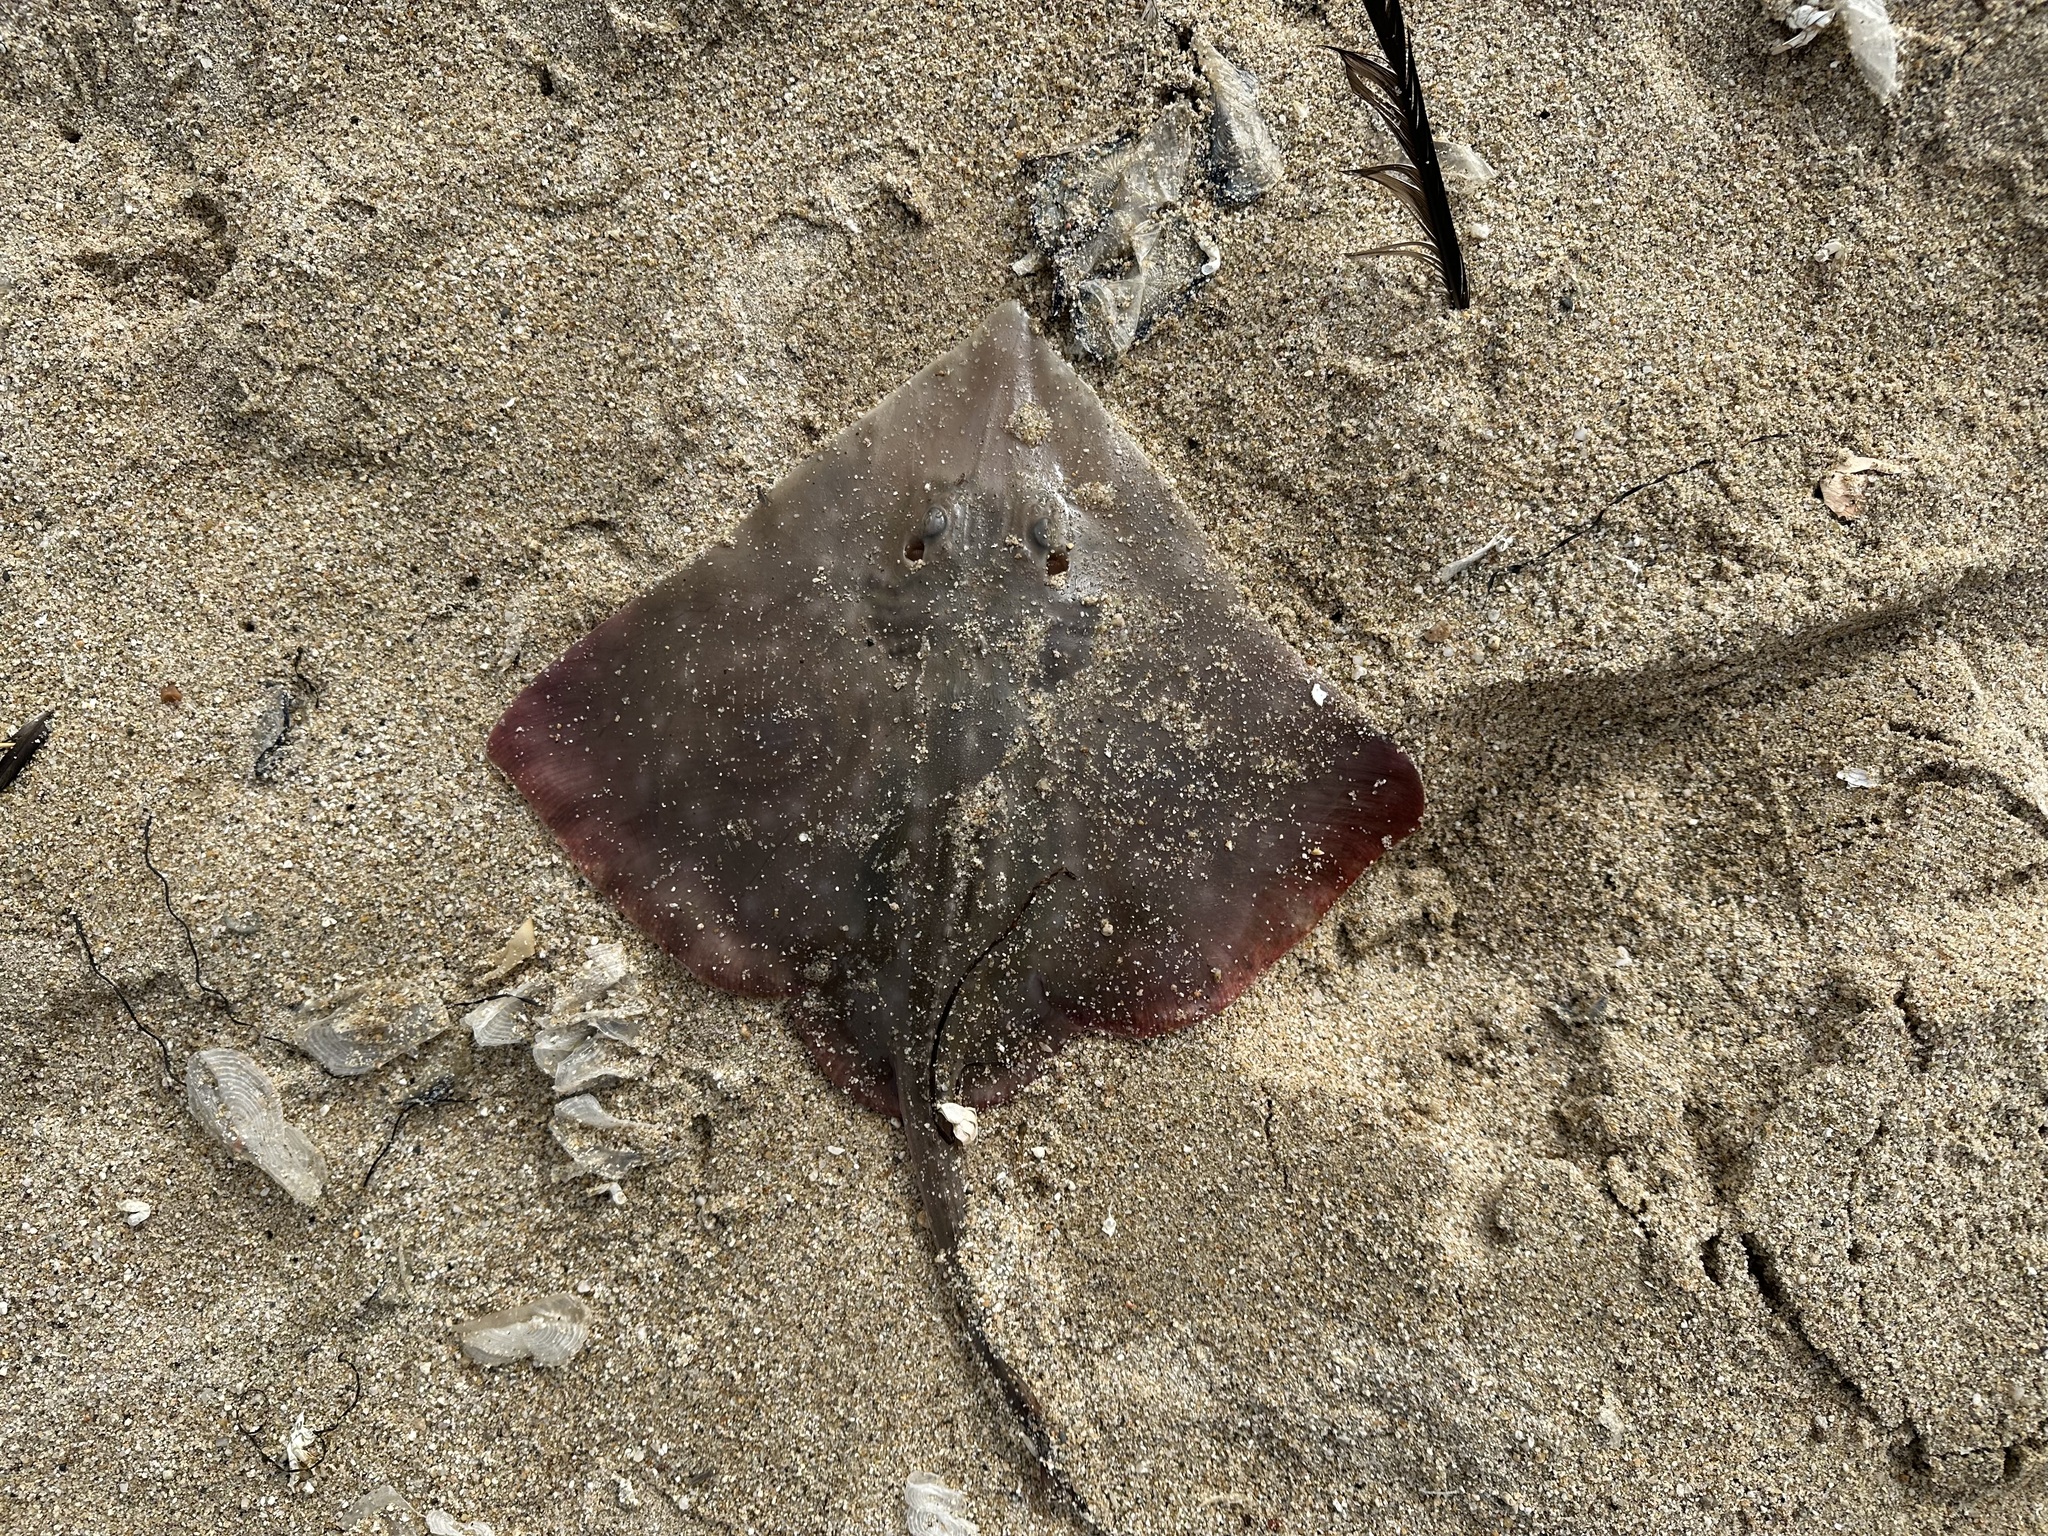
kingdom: Animalia
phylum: Chordata
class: Elasmobranchii
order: Rajiformes
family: Rajidae
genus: Beringraja
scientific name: Beringraja binoculata
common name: Big skate
